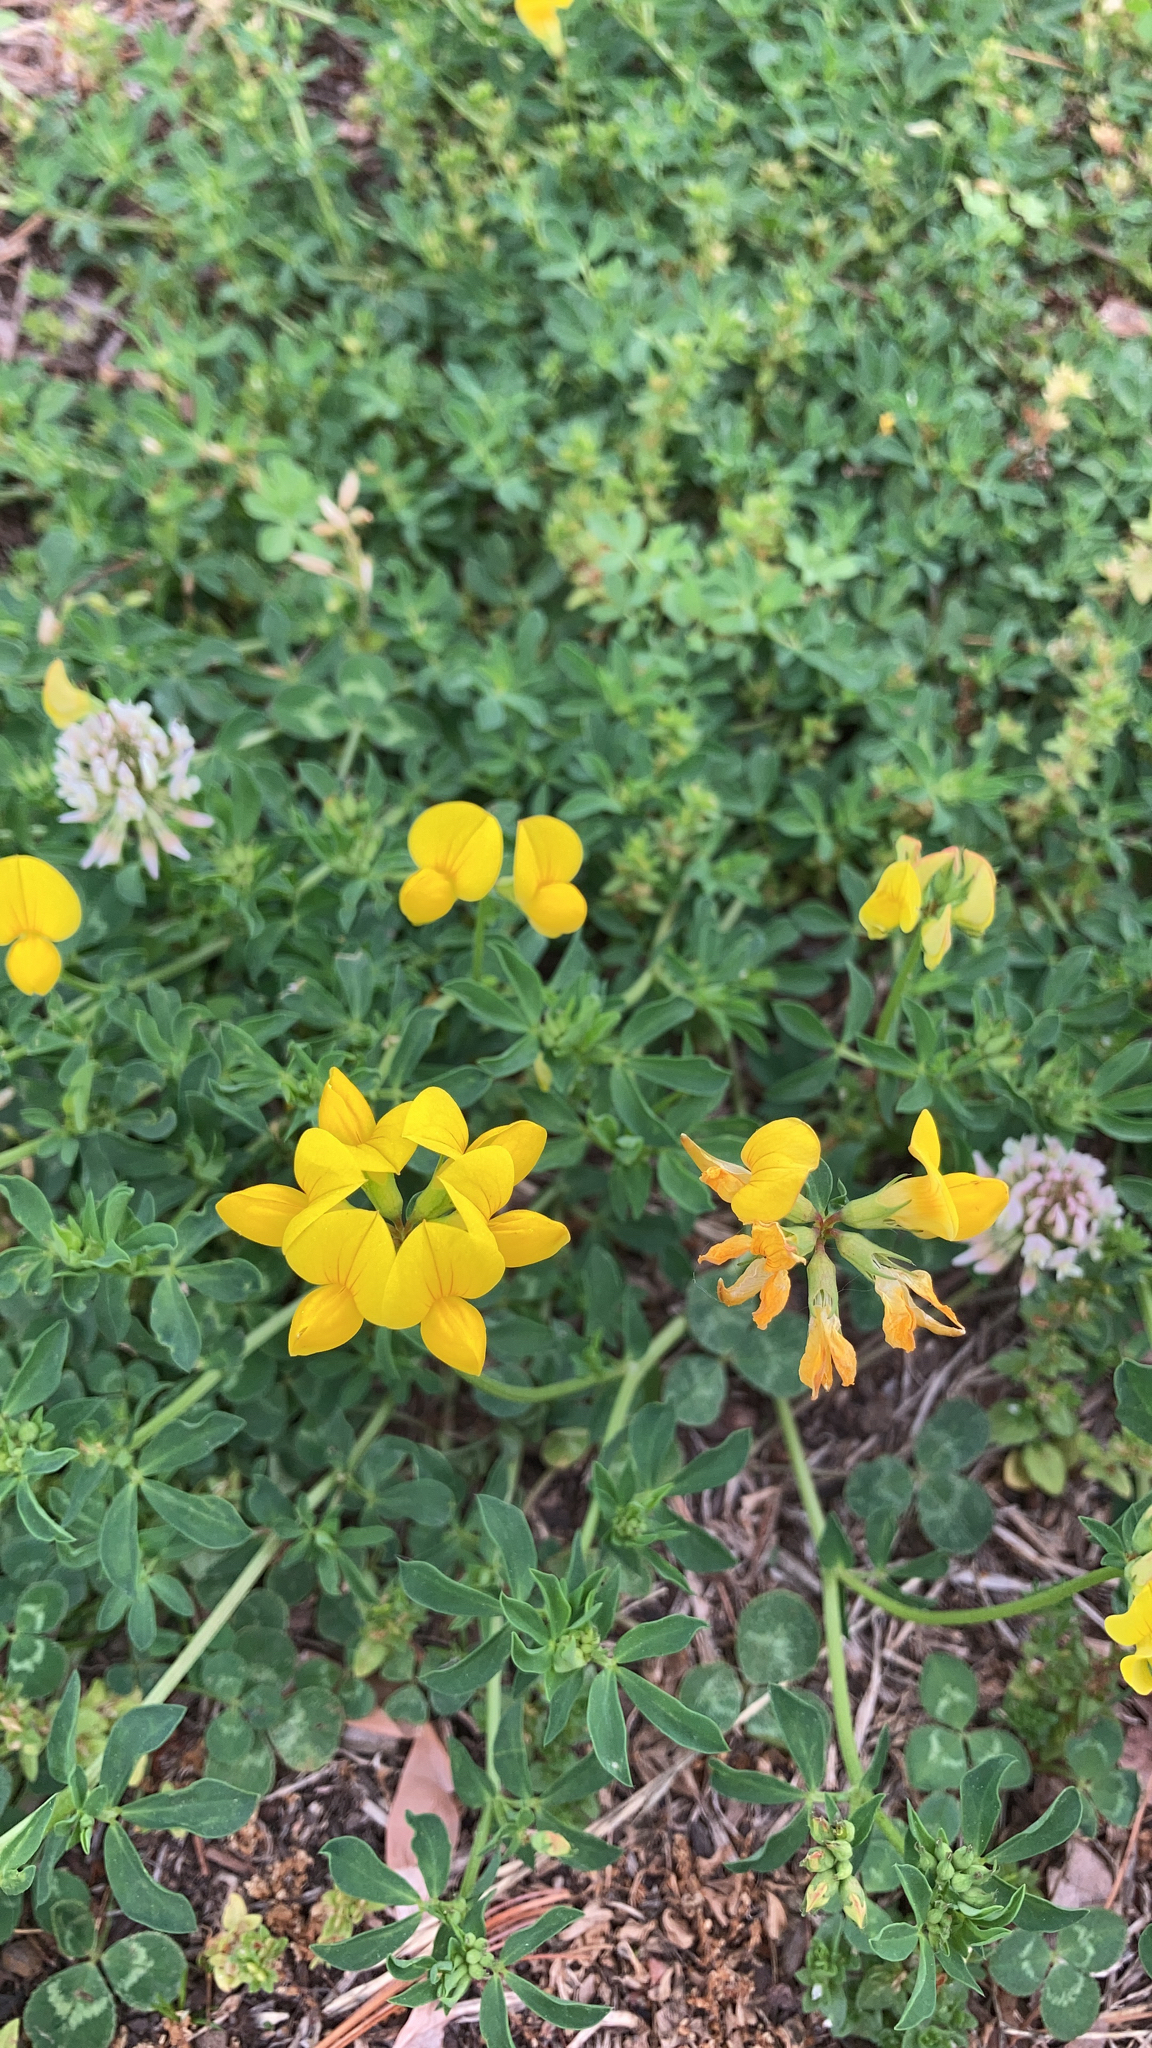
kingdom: Plantae
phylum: Tracheophyta
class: Magnoliopsida
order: Fabales
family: Fabaceae
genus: Lotus
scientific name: Lotus corniculatus
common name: Common bird's-foot-trefoil
